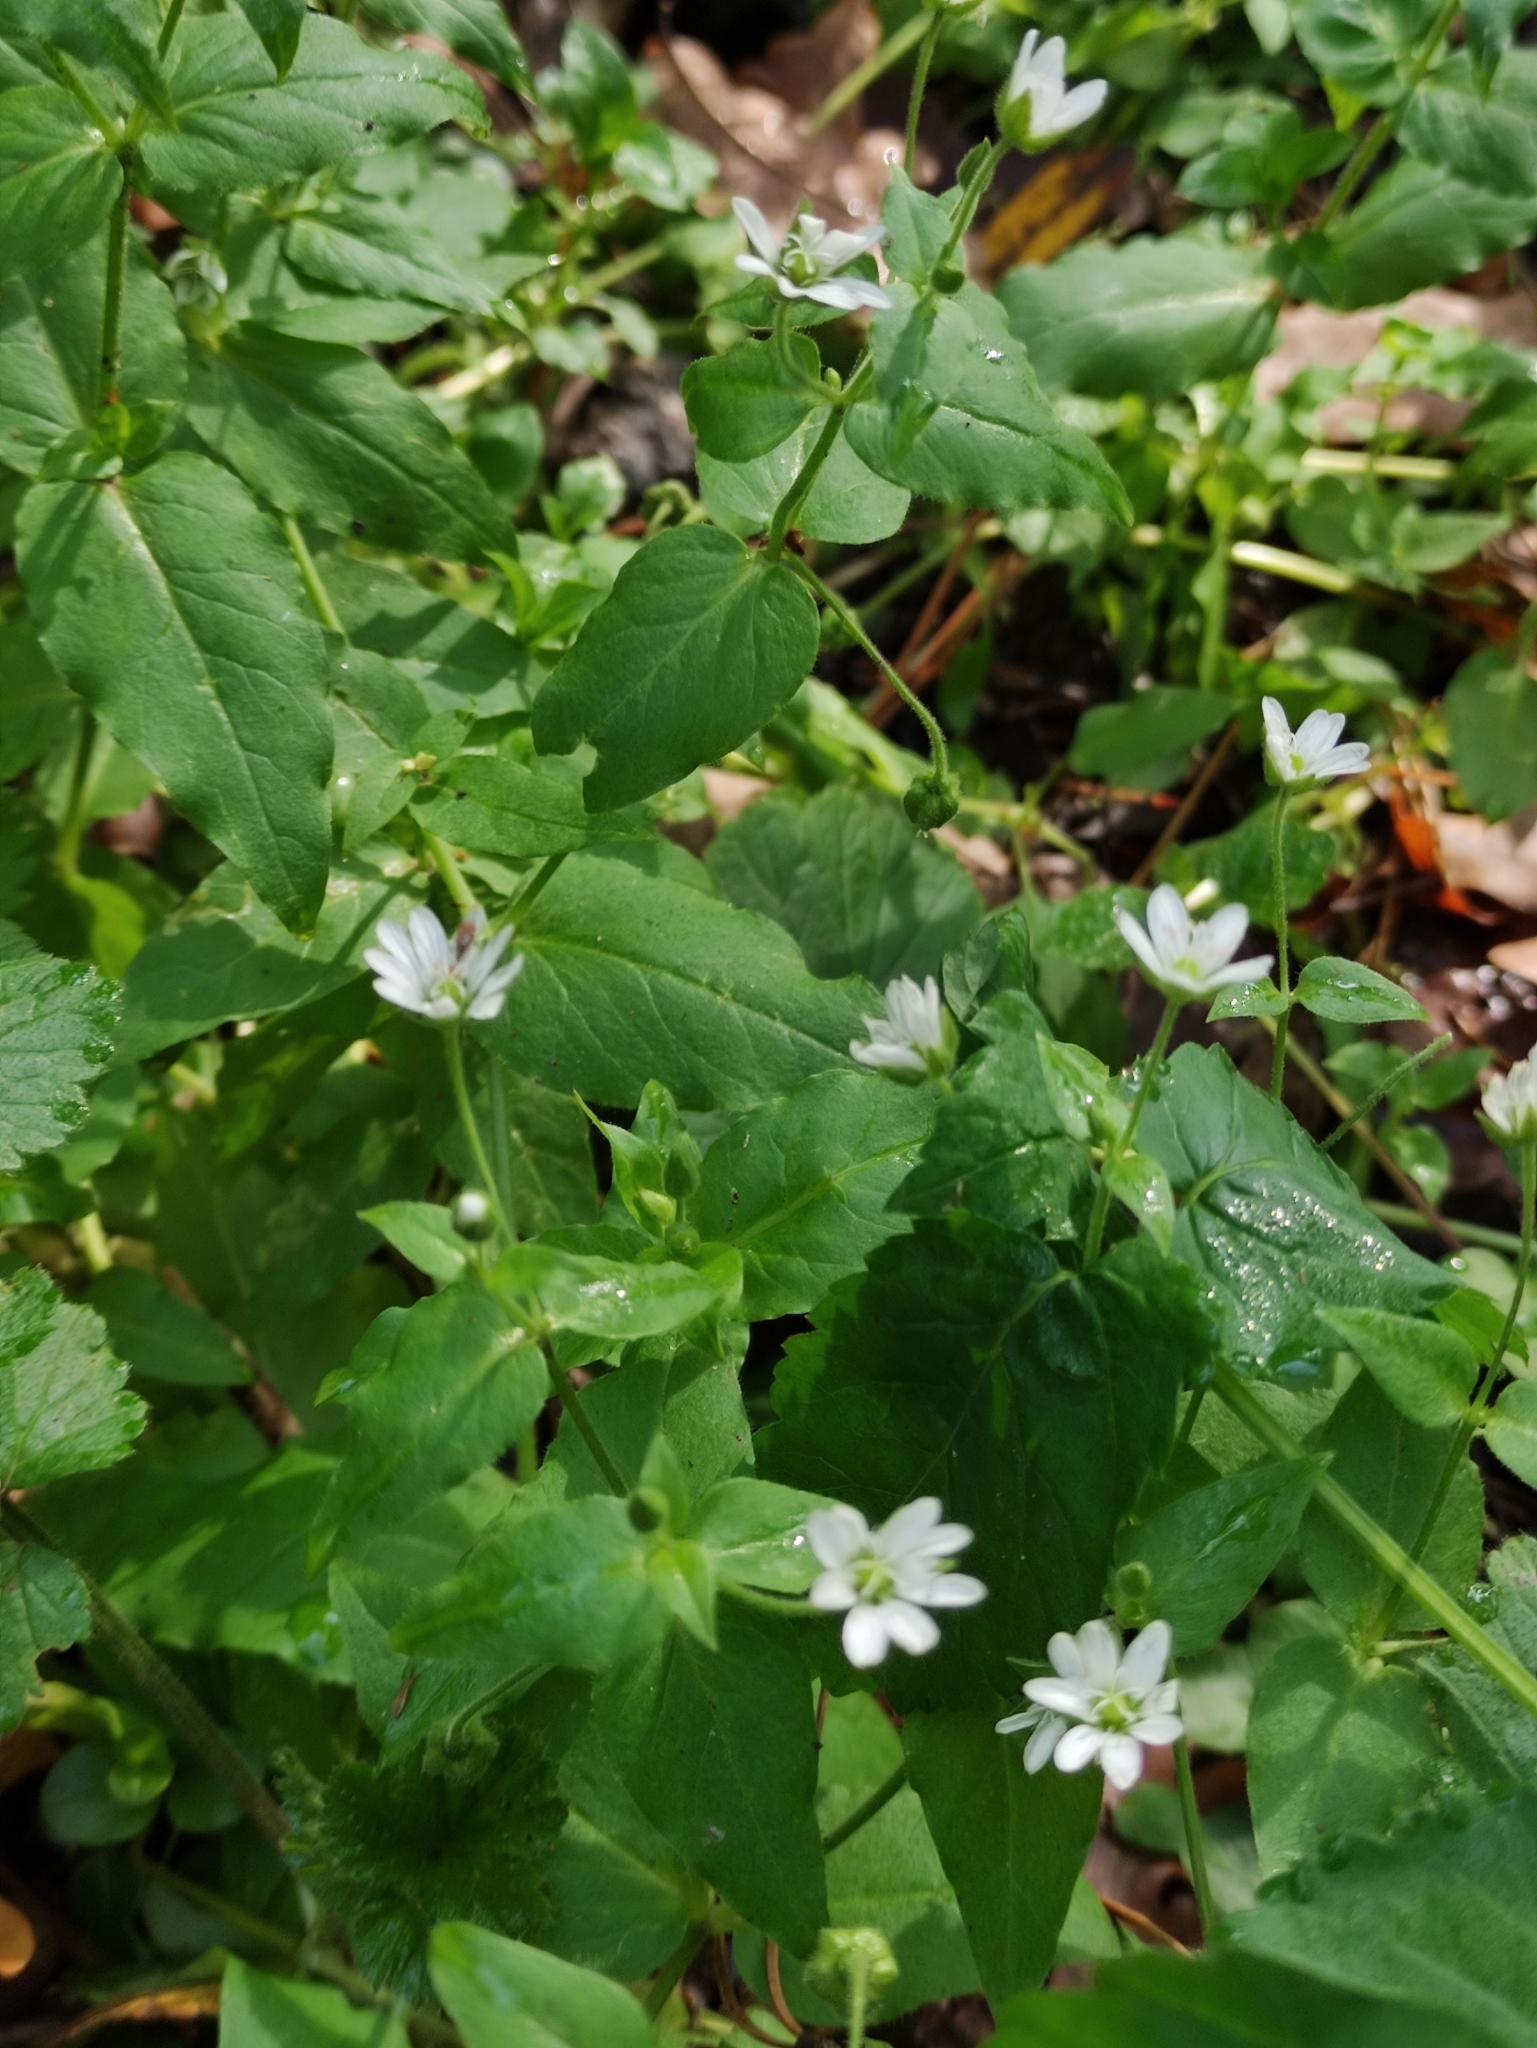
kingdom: Plantae
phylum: Tracheophyta
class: Magnoliopsida
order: Caryophyllales
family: Caryophyllaceae
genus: Stellaria
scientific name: Stellaria aquatica
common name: Water chickweed
